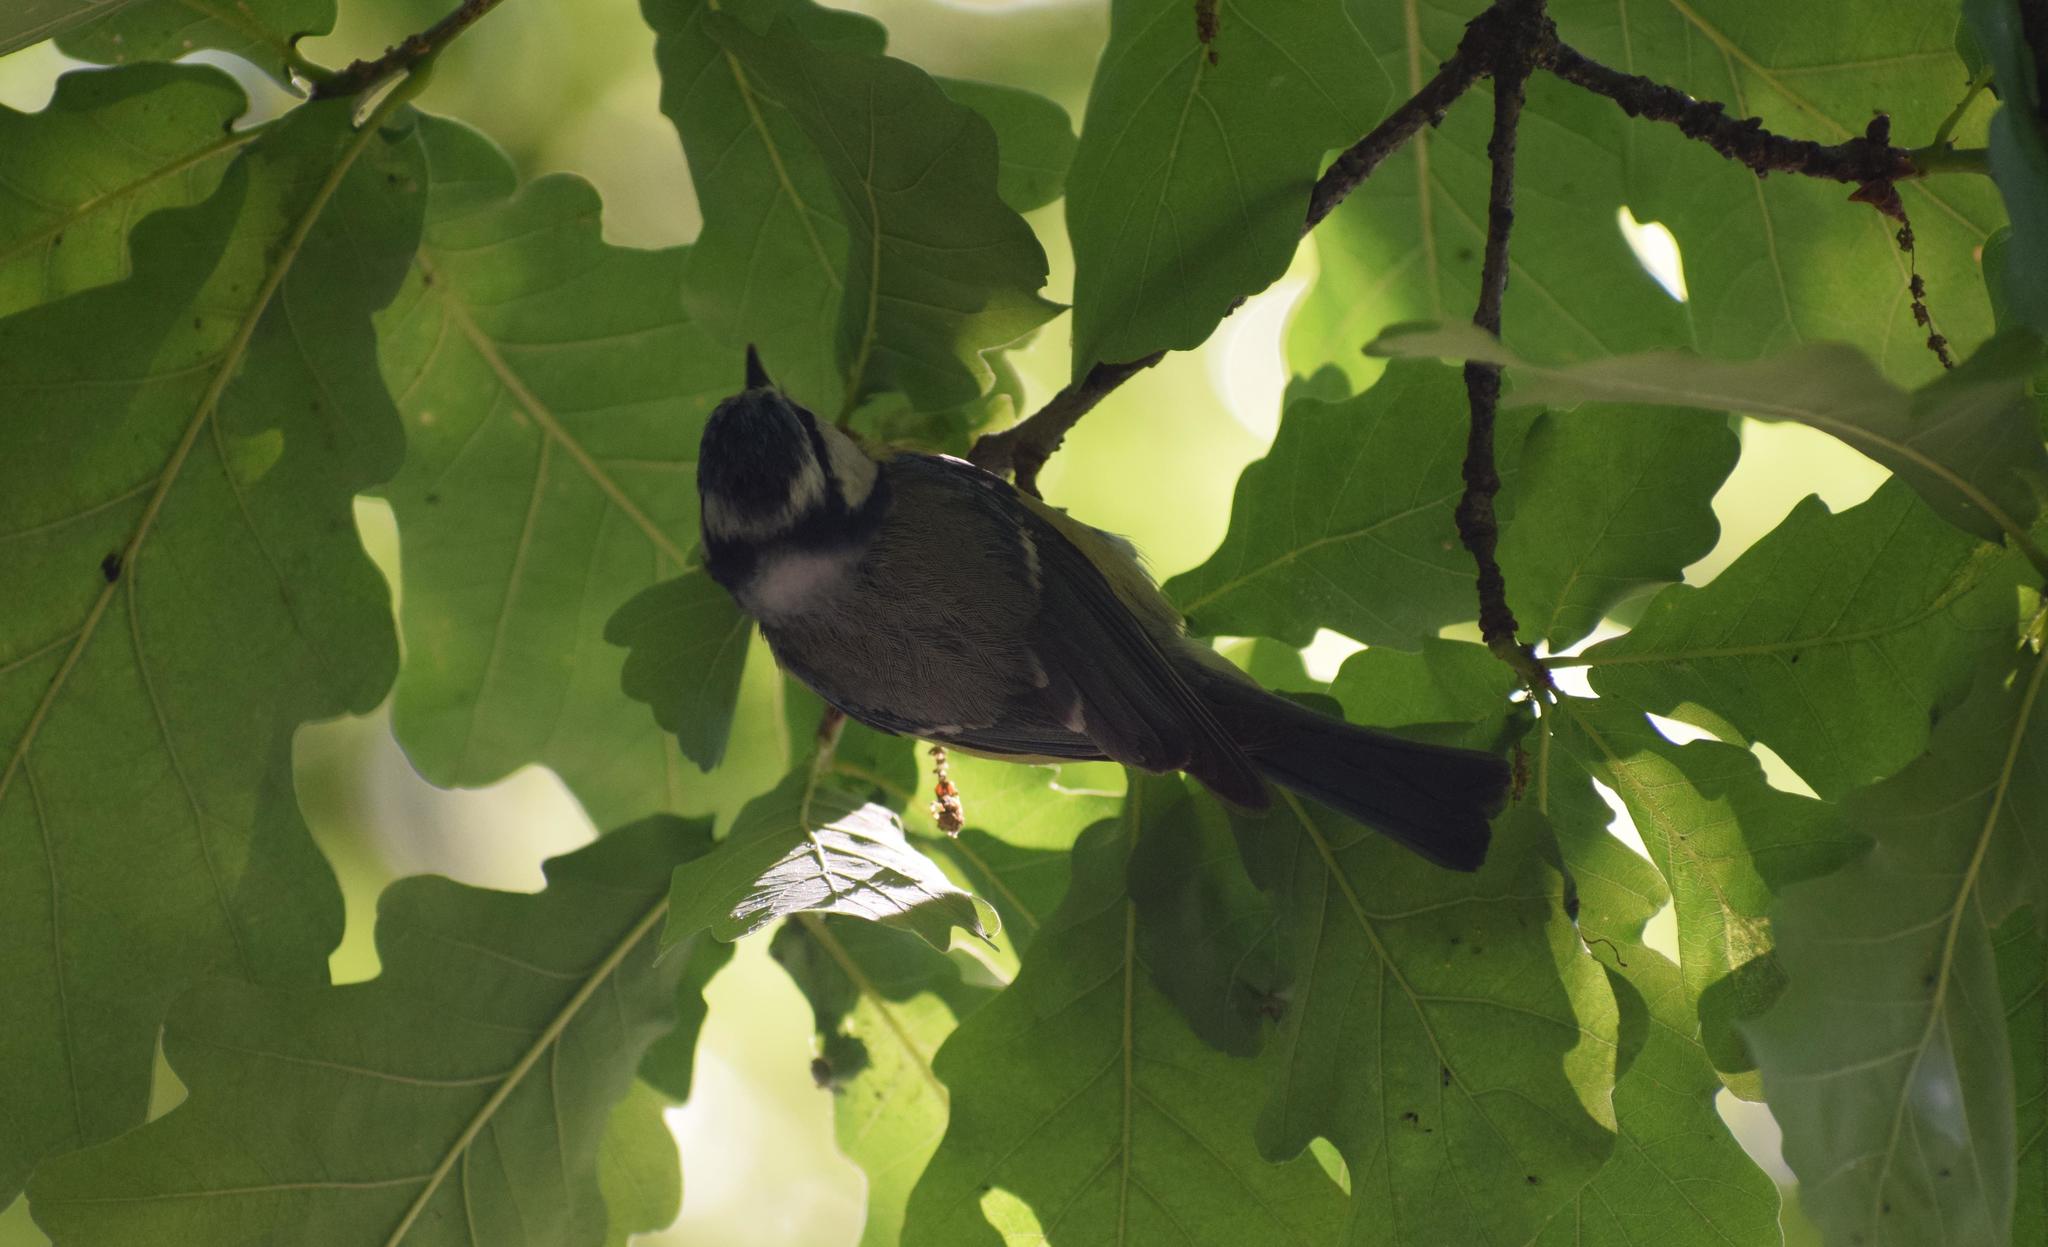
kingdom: Animalia
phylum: Chordata
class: Aves
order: Passeriformes
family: Paridae
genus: Cyanistes
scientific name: Cyanistes caeruleus
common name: Eurasian blue tit
